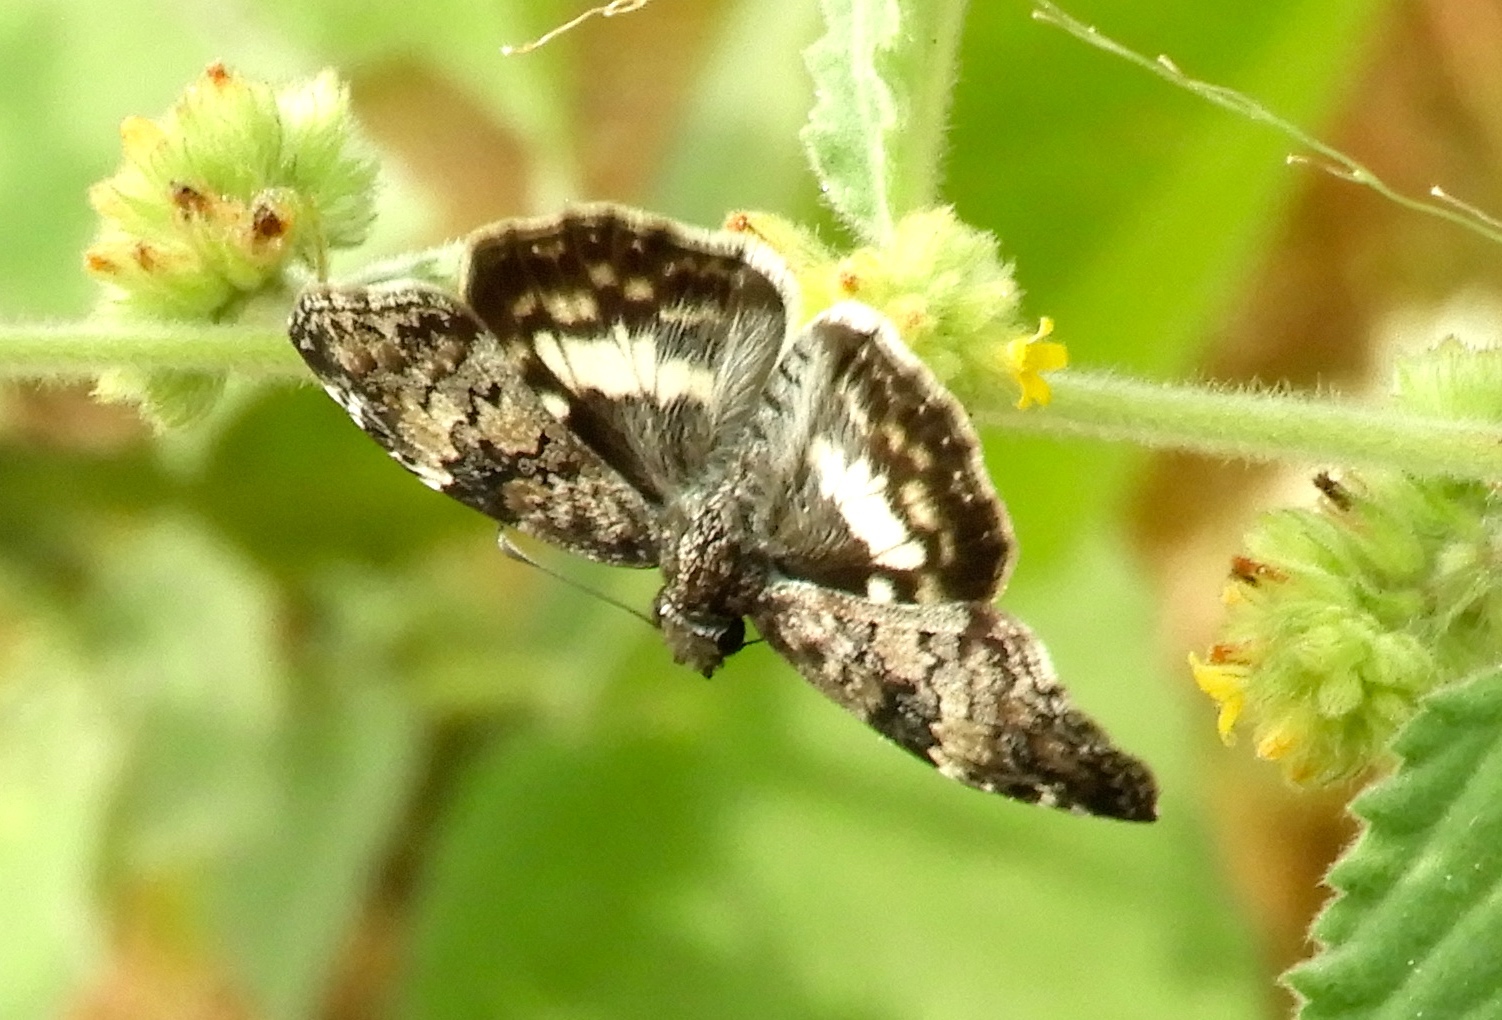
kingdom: Animalia
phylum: Arthropoda
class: Insecta
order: Lepidoptera
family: Hesperiidae
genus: Chiothion
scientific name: Chiothion georgina
